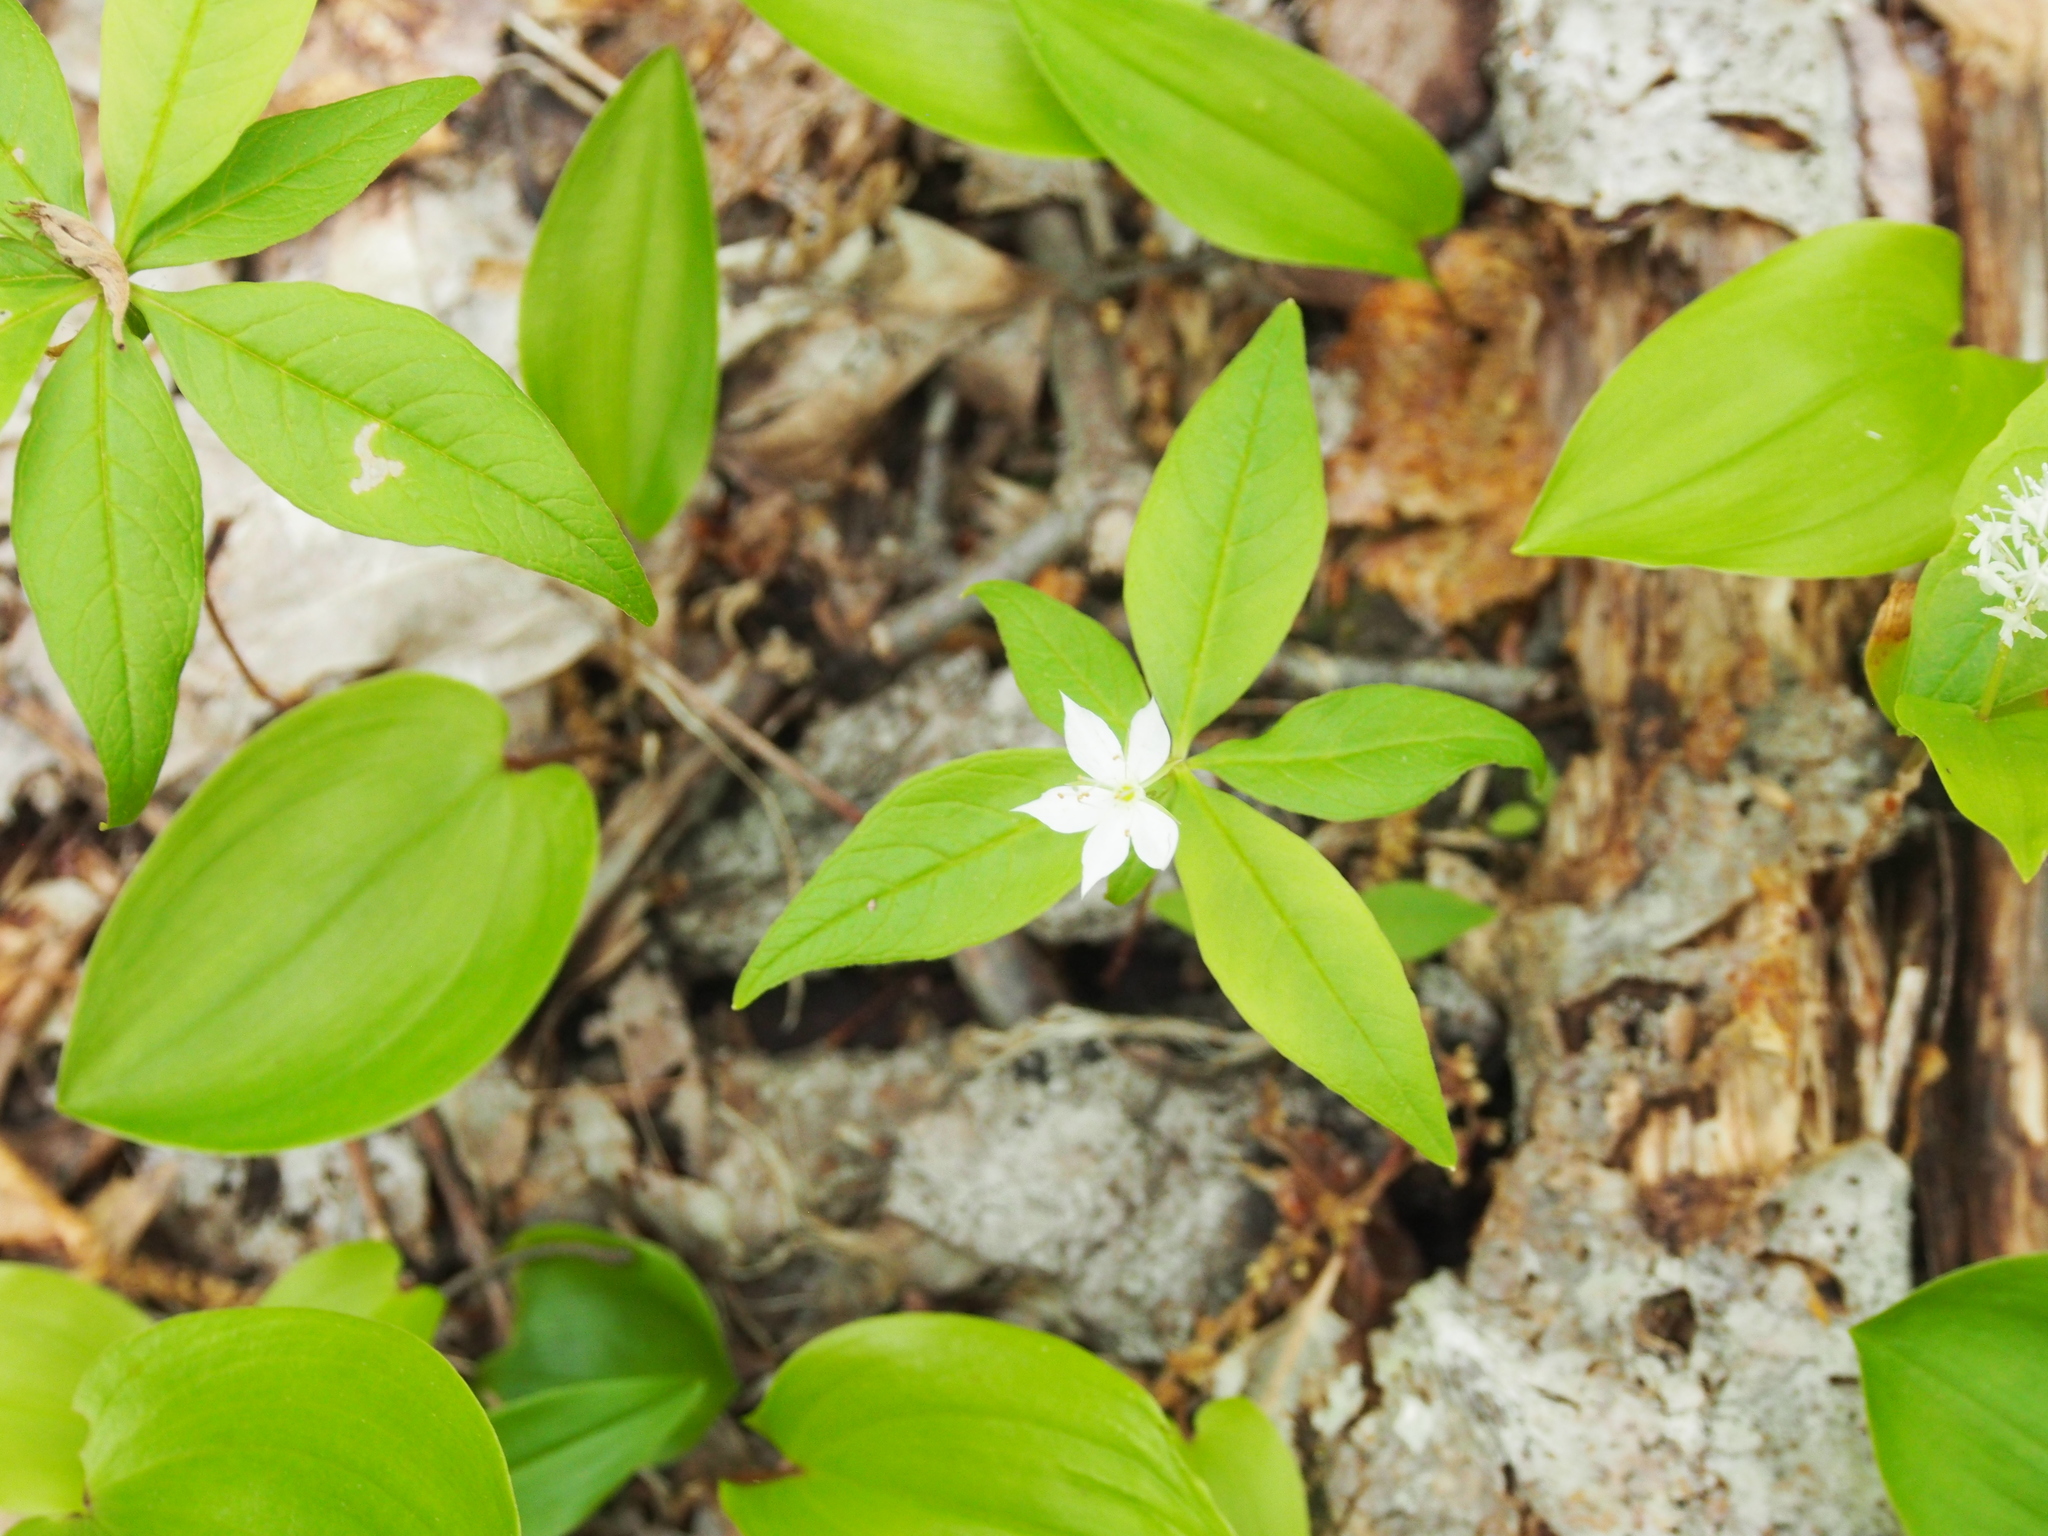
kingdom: Plantae
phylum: Tracheophyta
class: Magnoliopsida
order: Ericales
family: Primulaceae
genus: Lysimachia
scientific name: Lysimachia borealis
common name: American starflower
